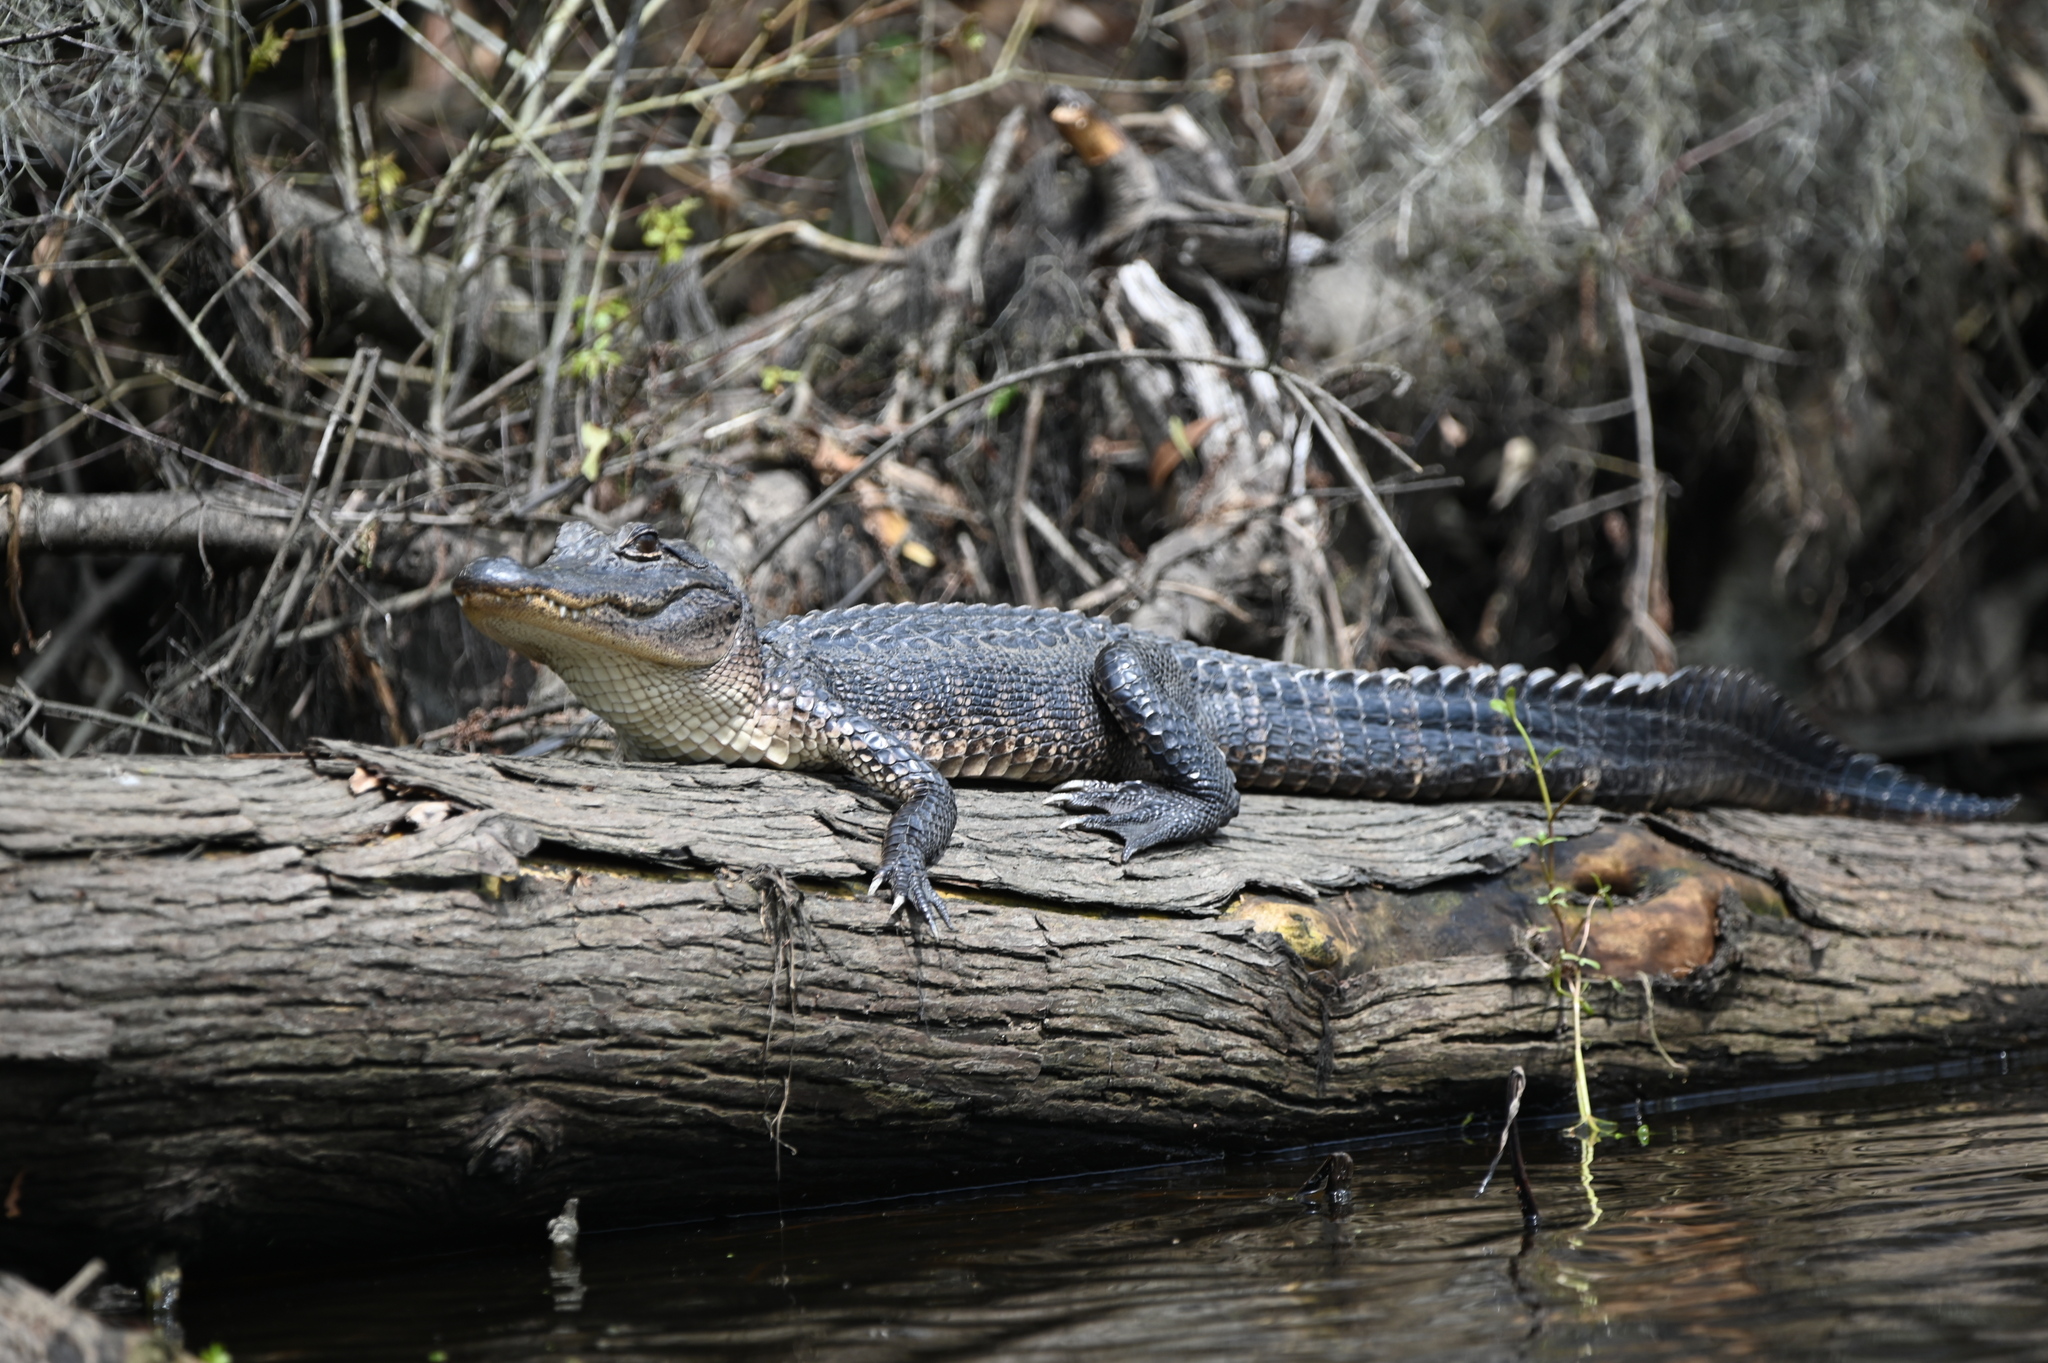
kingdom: Animalia
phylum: Chordata
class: Crocodylia
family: Alligatoridae
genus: Alligator
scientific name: Alligator mississippiensis
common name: American alligator
